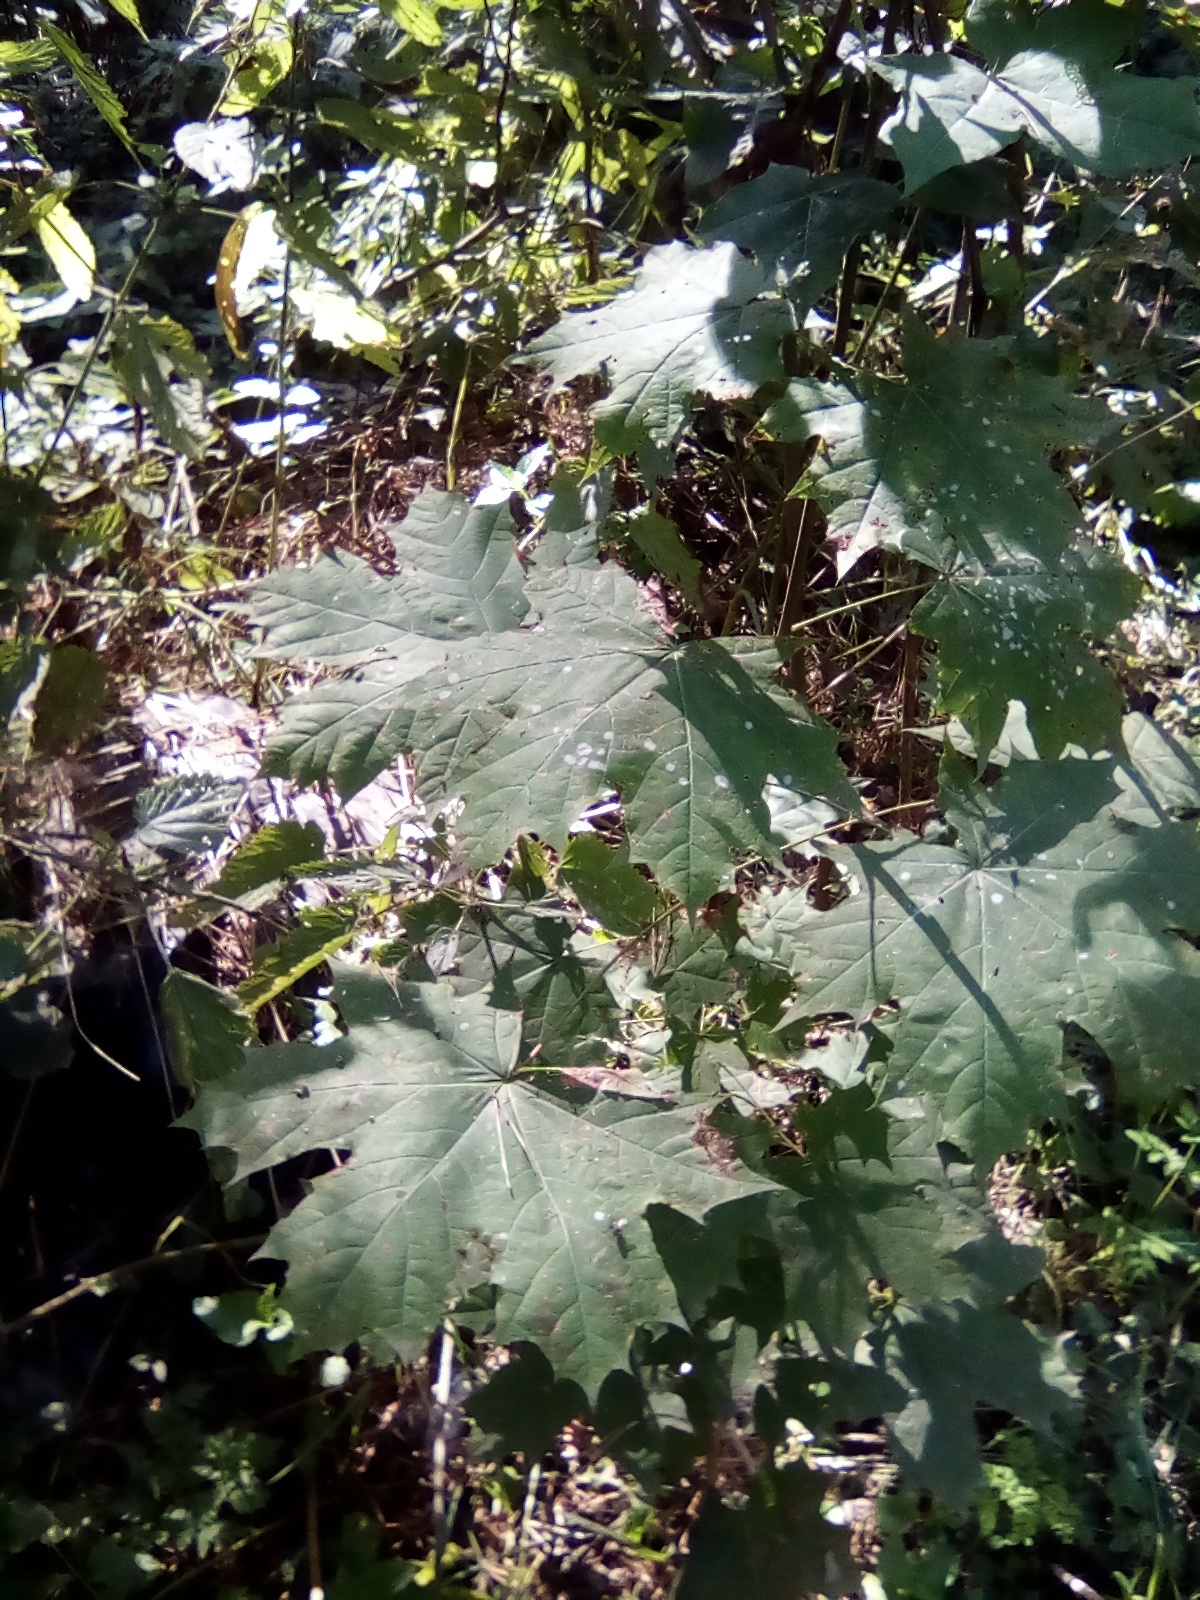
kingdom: Plantae
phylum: Tracheophyta
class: Magnoliopsida
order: Sapindales
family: Sapindaceae
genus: Acer
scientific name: Acer platanoides
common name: Norway maple
